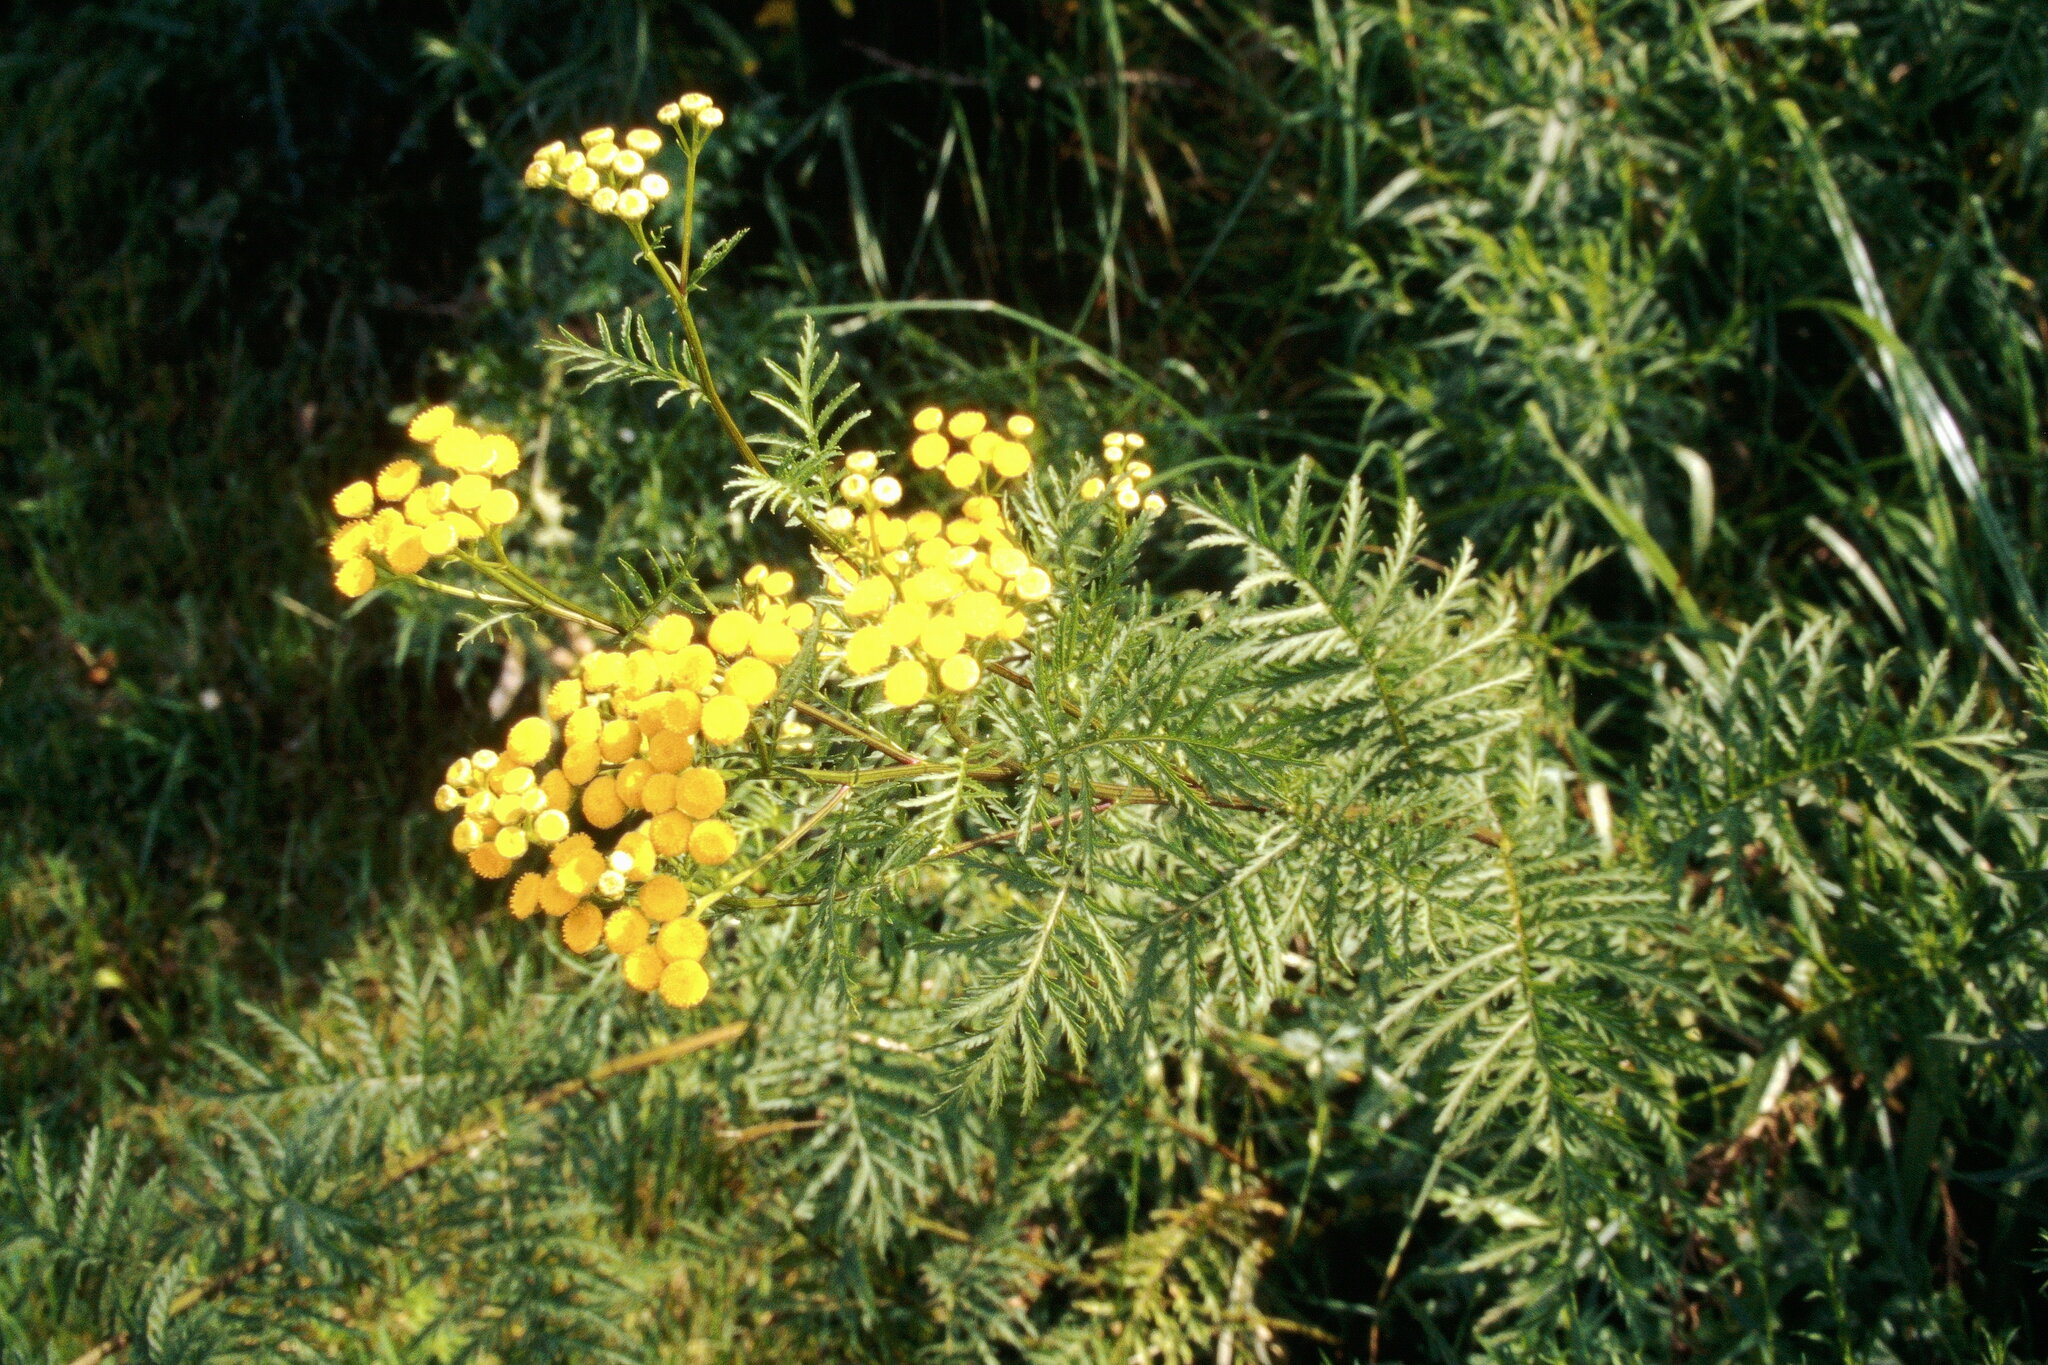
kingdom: Plantae
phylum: Tracheophyta
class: Magnoliopsida
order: Asterales
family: Asteraceae
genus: Tanacetum
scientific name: Tanacetum vulgare
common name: Common tansy
